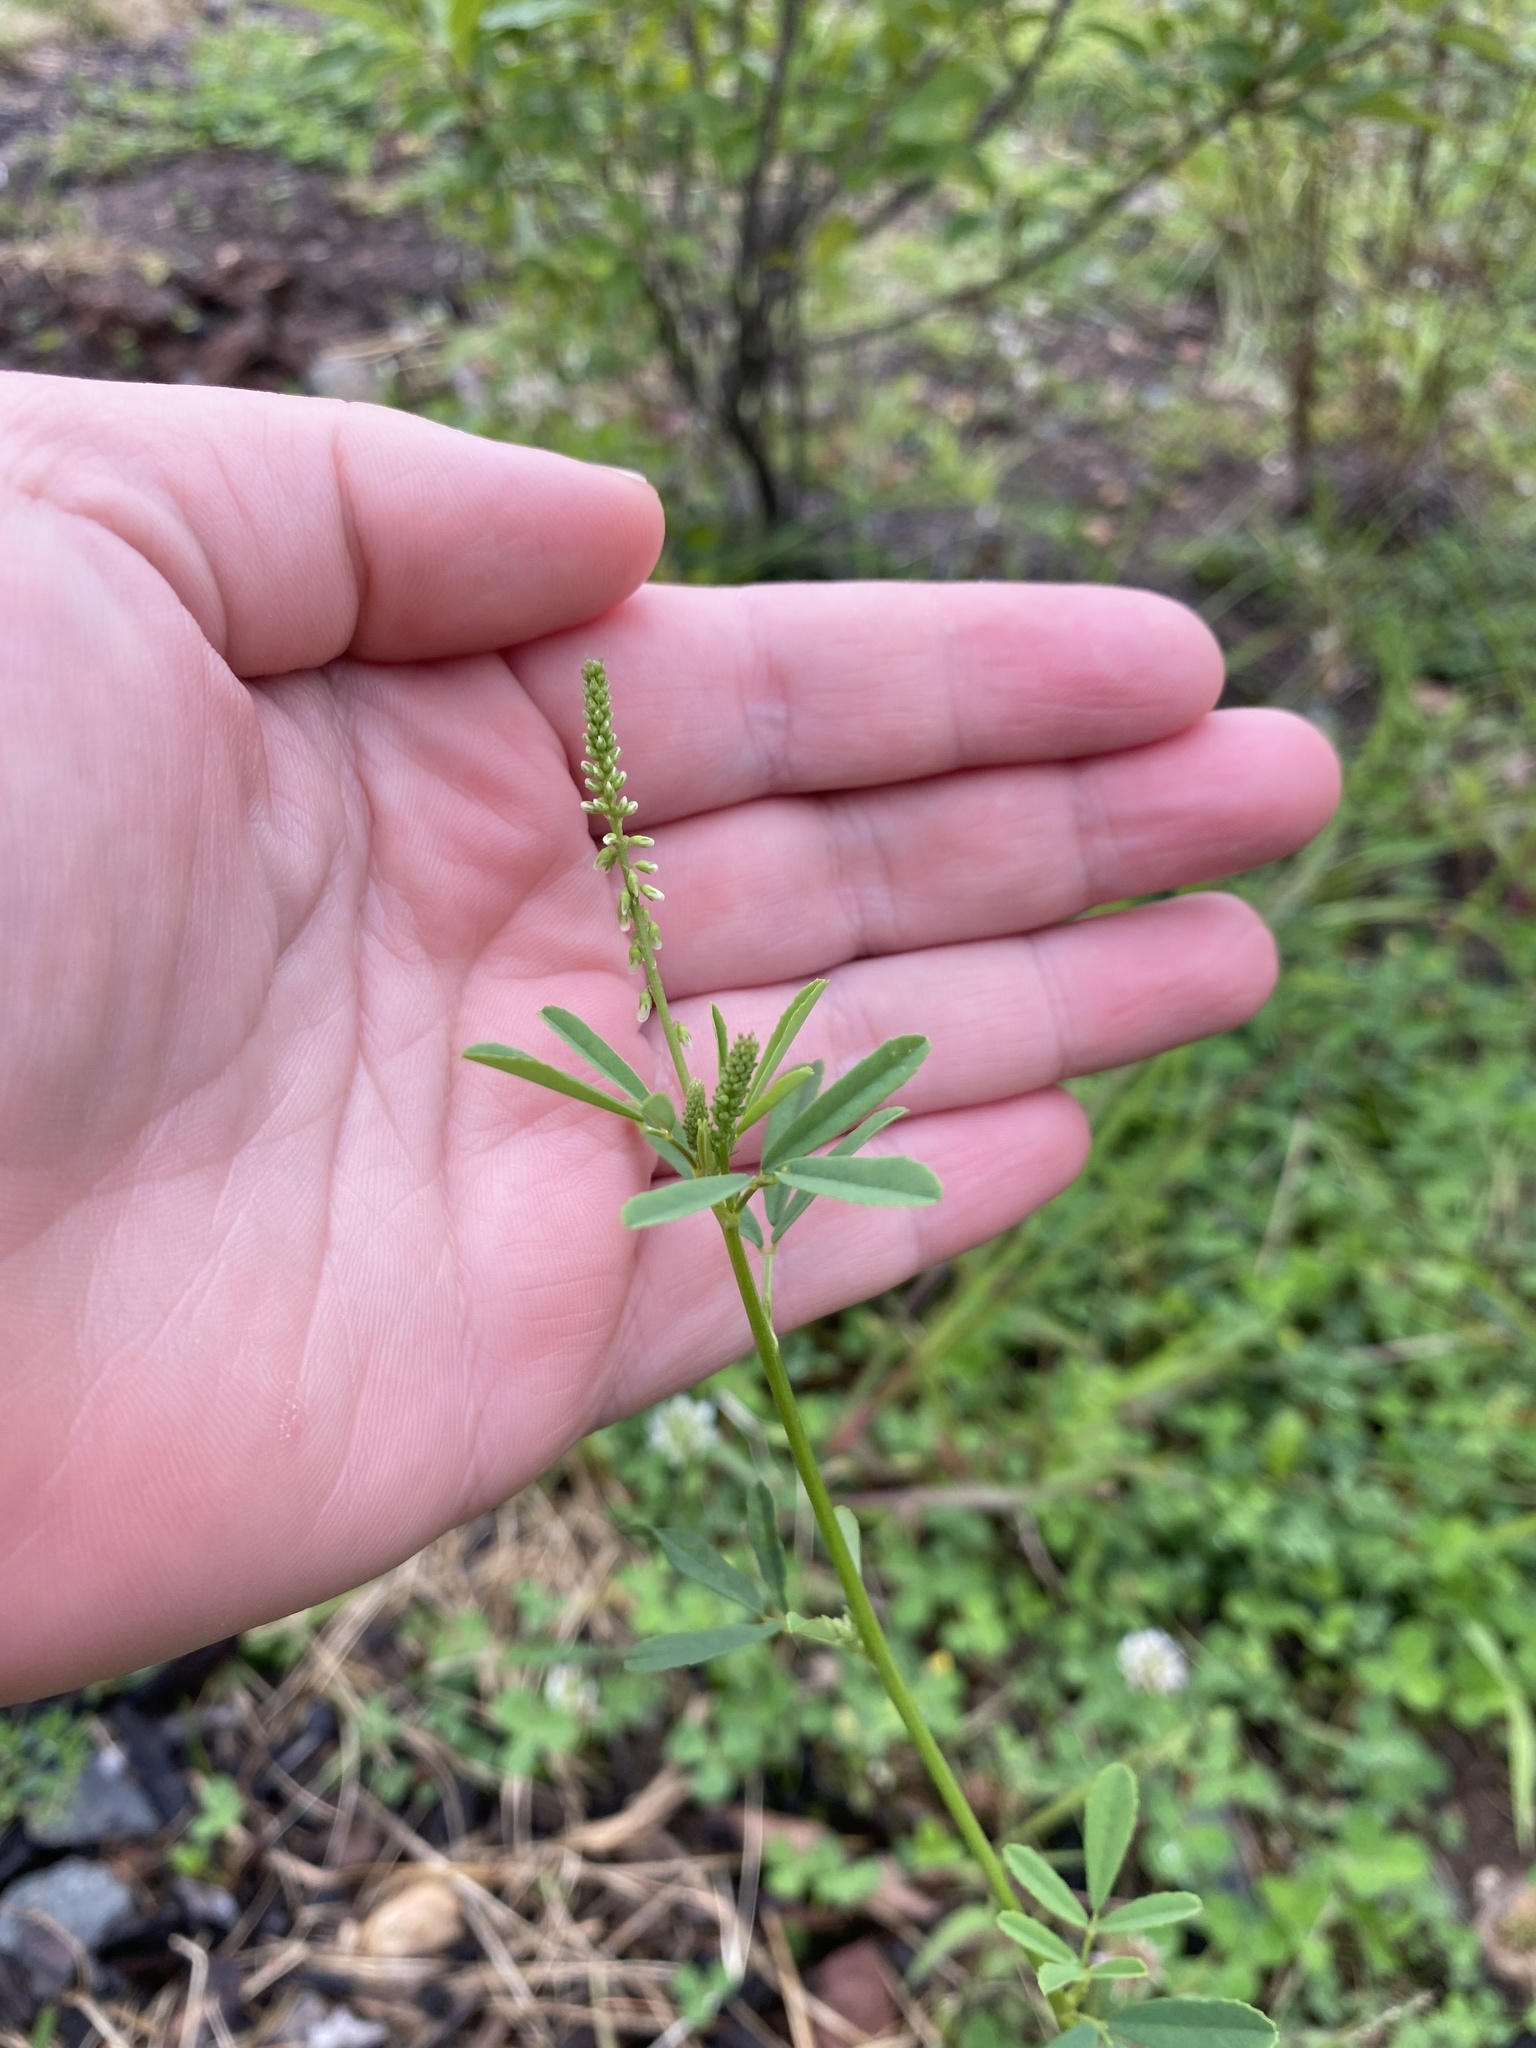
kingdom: Plantae
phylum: Tracheophyta
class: Magnoliopsida
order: Fabales
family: Fabaceae
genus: Melilotus
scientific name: Melilotus albus
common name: White melilot
